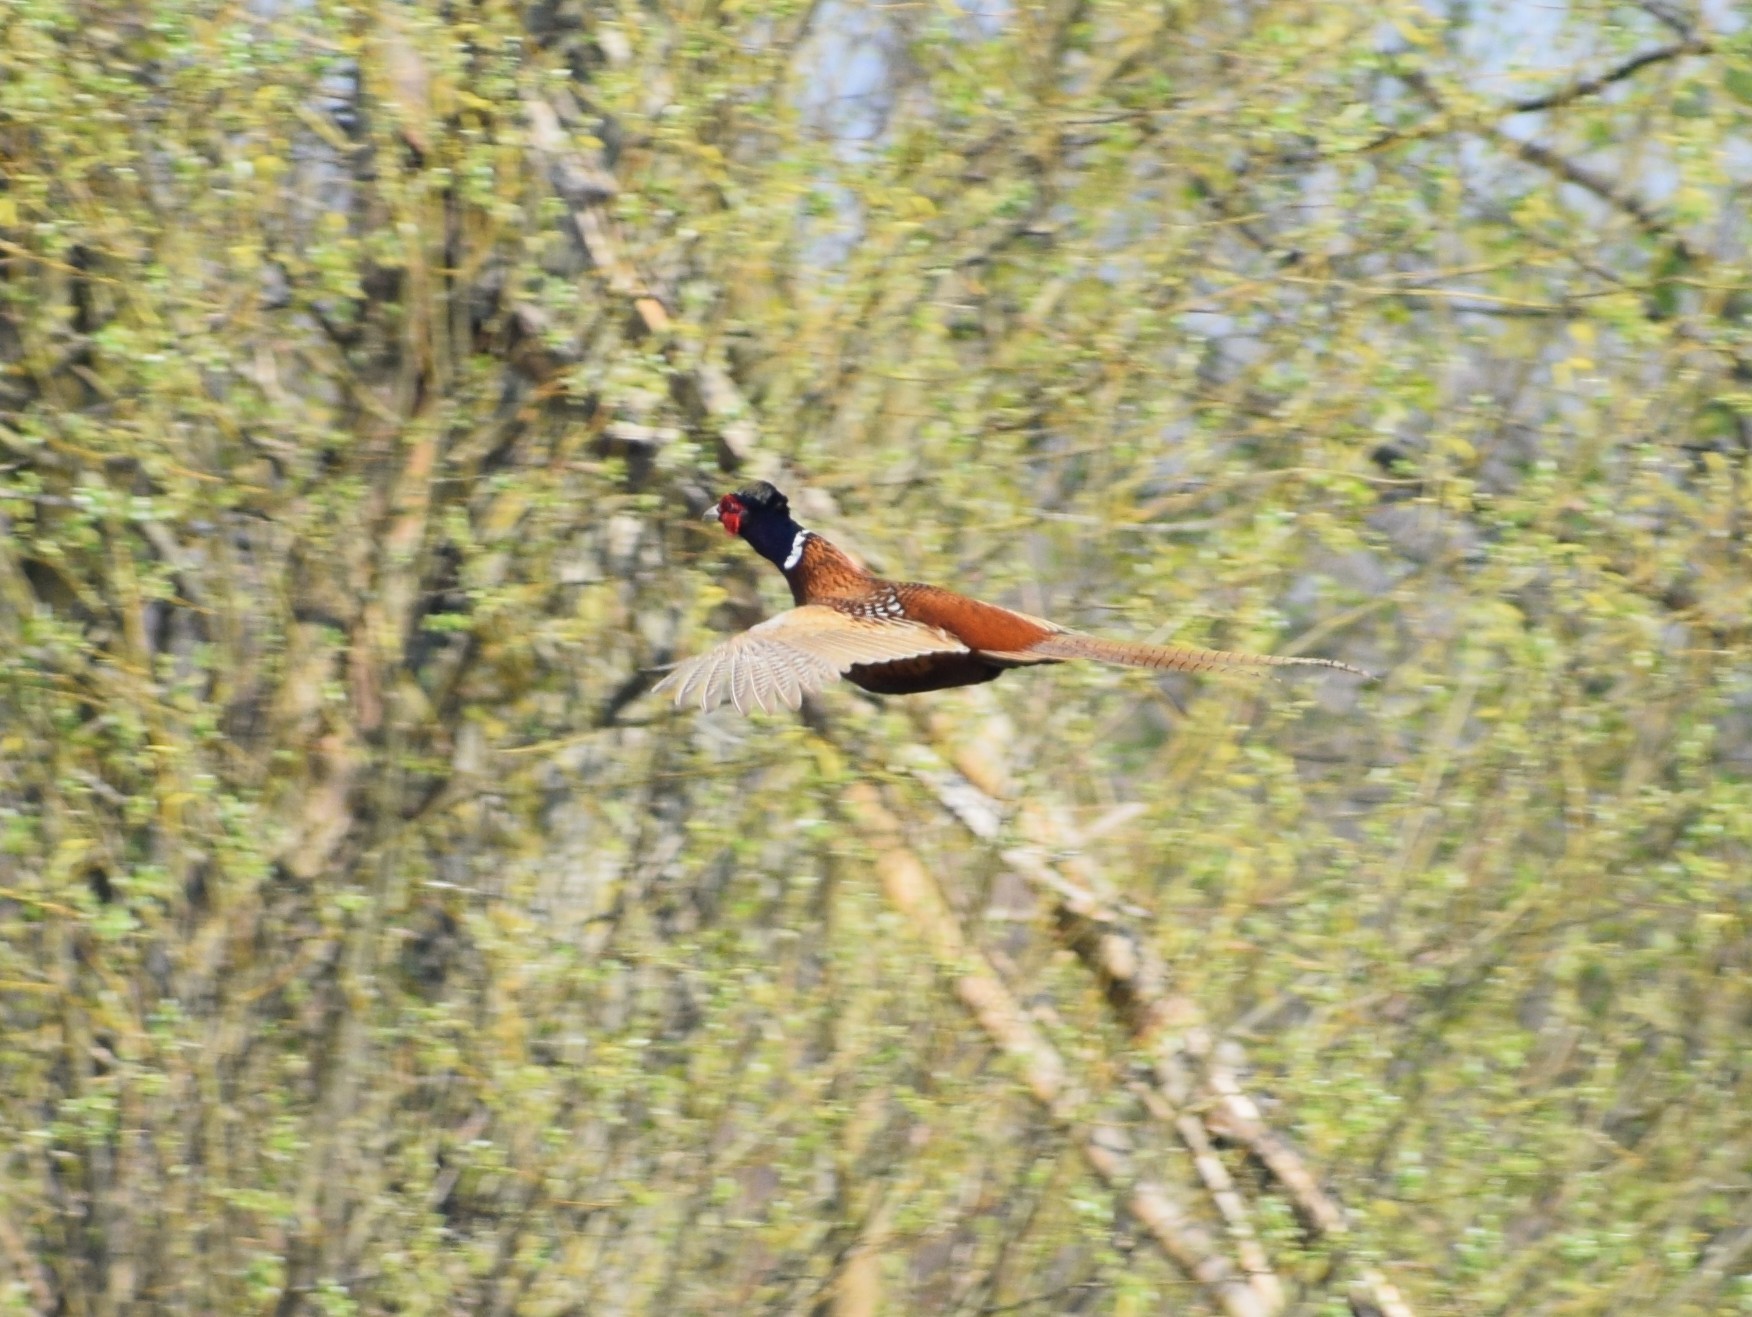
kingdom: Animalia
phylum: Chordata
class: Aves
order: Galliformes
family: Phasianidae
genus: Phasianus
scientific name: Phasianus colchicus
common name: Common pheasant
